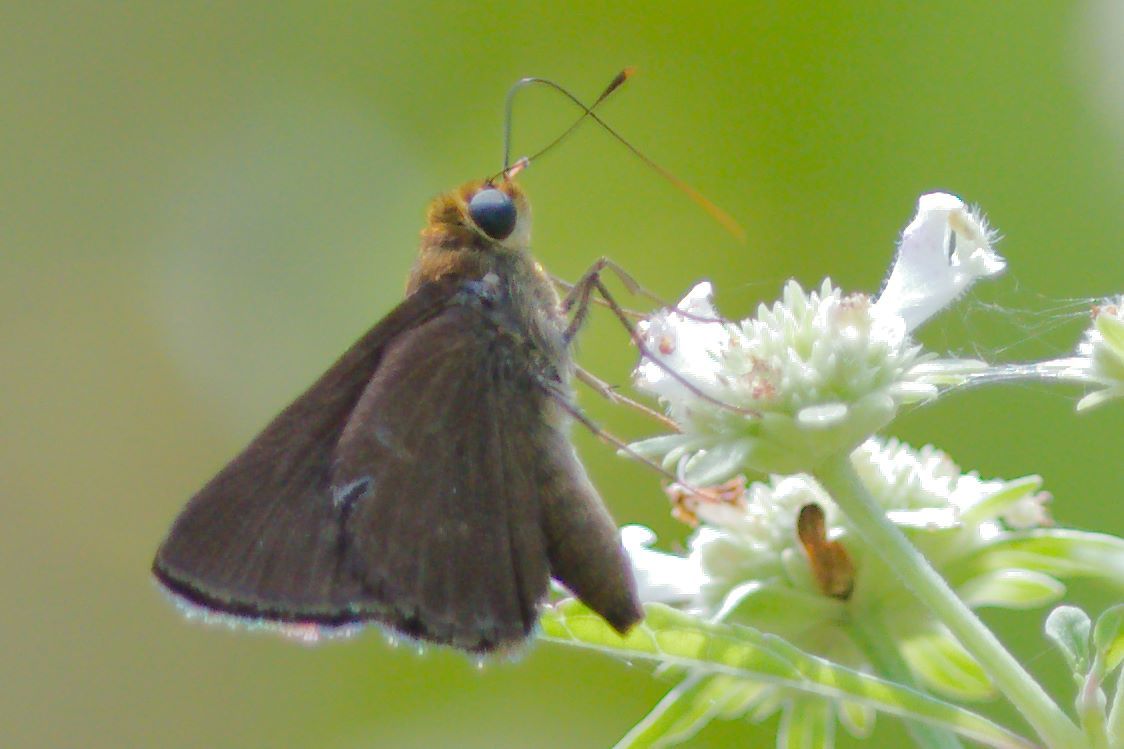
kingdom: Animalia
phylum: Arthropoda
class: Insecta
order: Lepidoptera
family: Hesperiidae
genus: Euphyes
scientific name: Euphyes vestris
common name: Dun skipper
